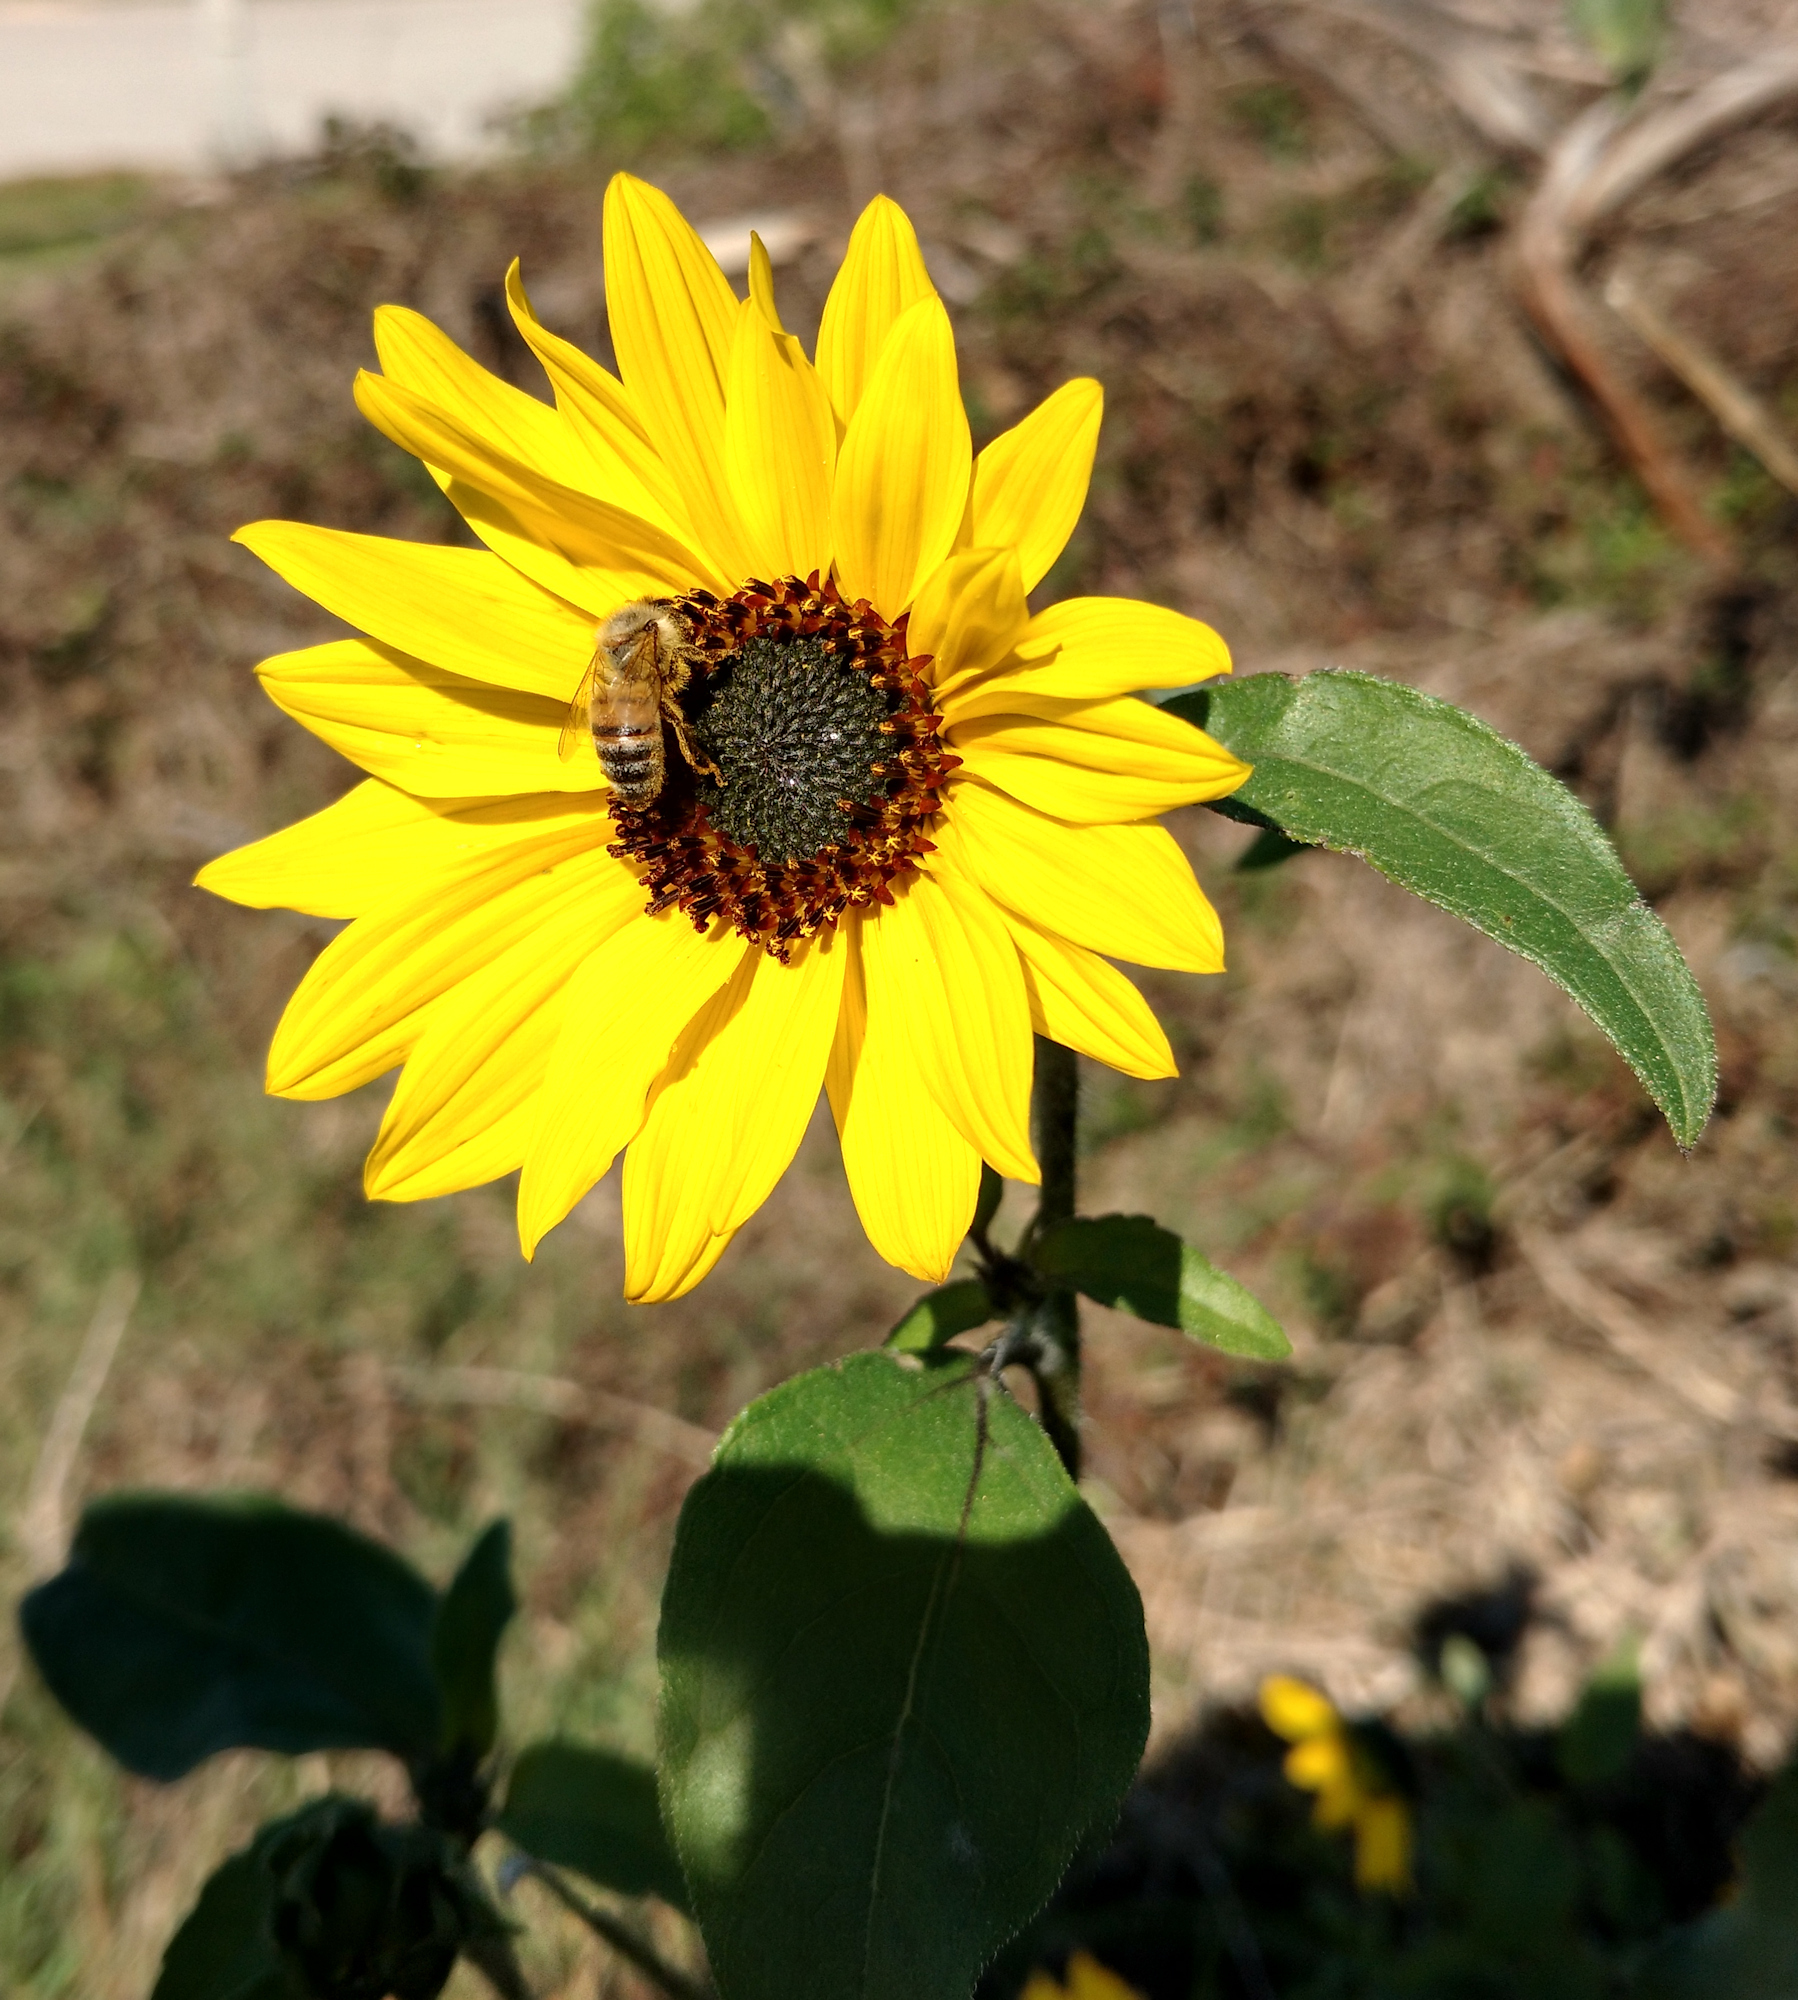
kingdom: Plantae
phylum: Tracheophyta
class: Magnoliopsida
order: Asterales
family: Asteraceae
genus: Helianthus
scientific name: Helianthus annuus
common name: Sunflower
